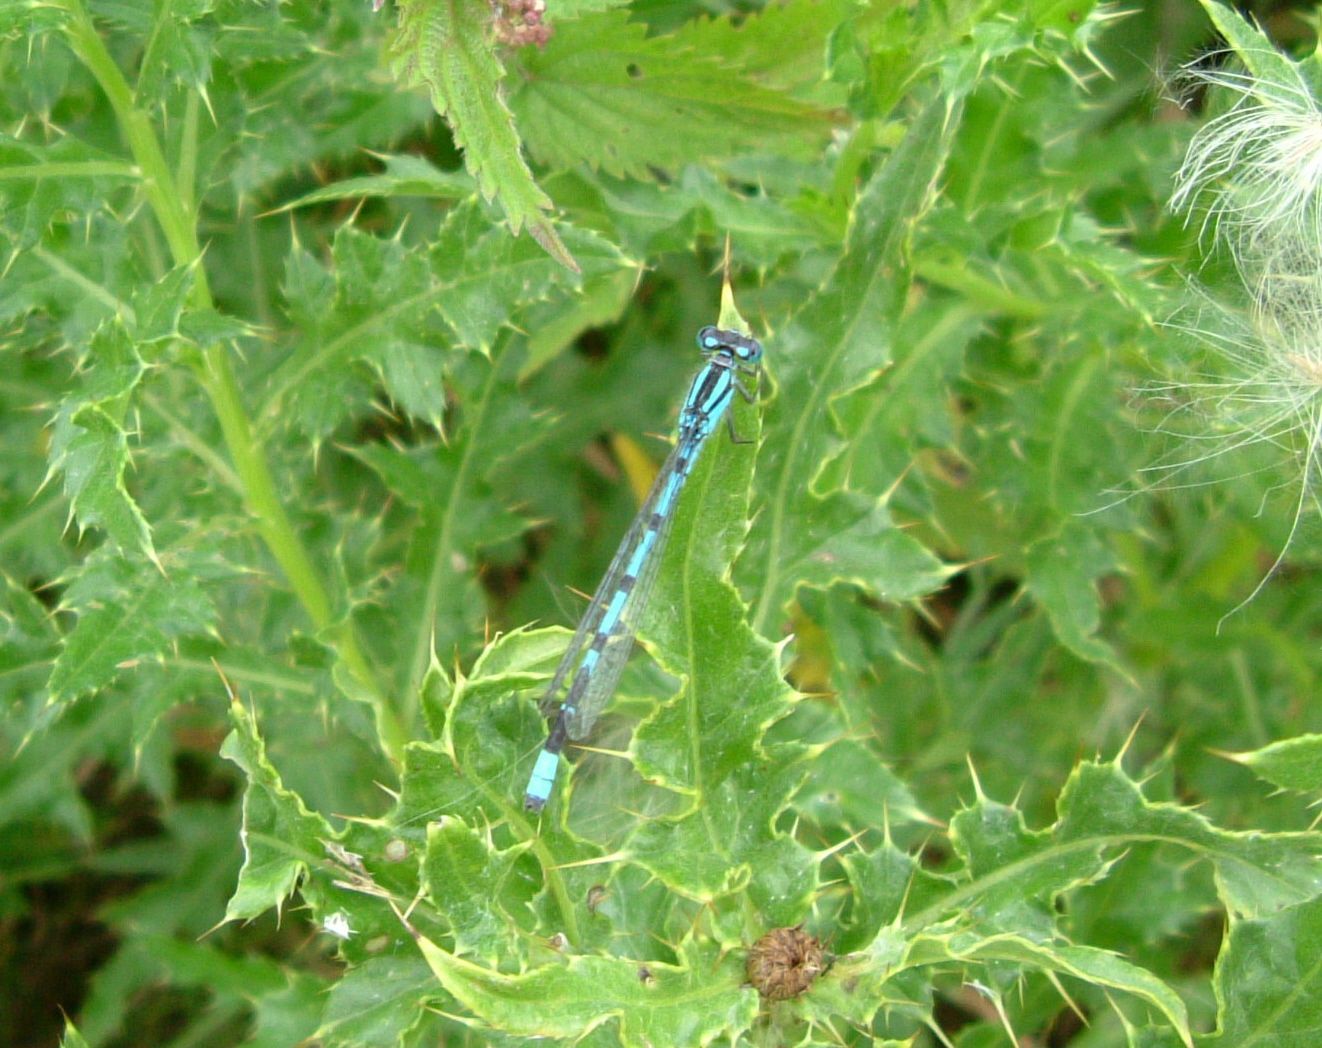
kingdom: Animalia
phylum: Arthropoda
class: Insecta
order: Odonata
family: Coenagrionidae
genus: Enallagma
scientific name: Enallagma cyathigerum
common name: Common blue damselfly
